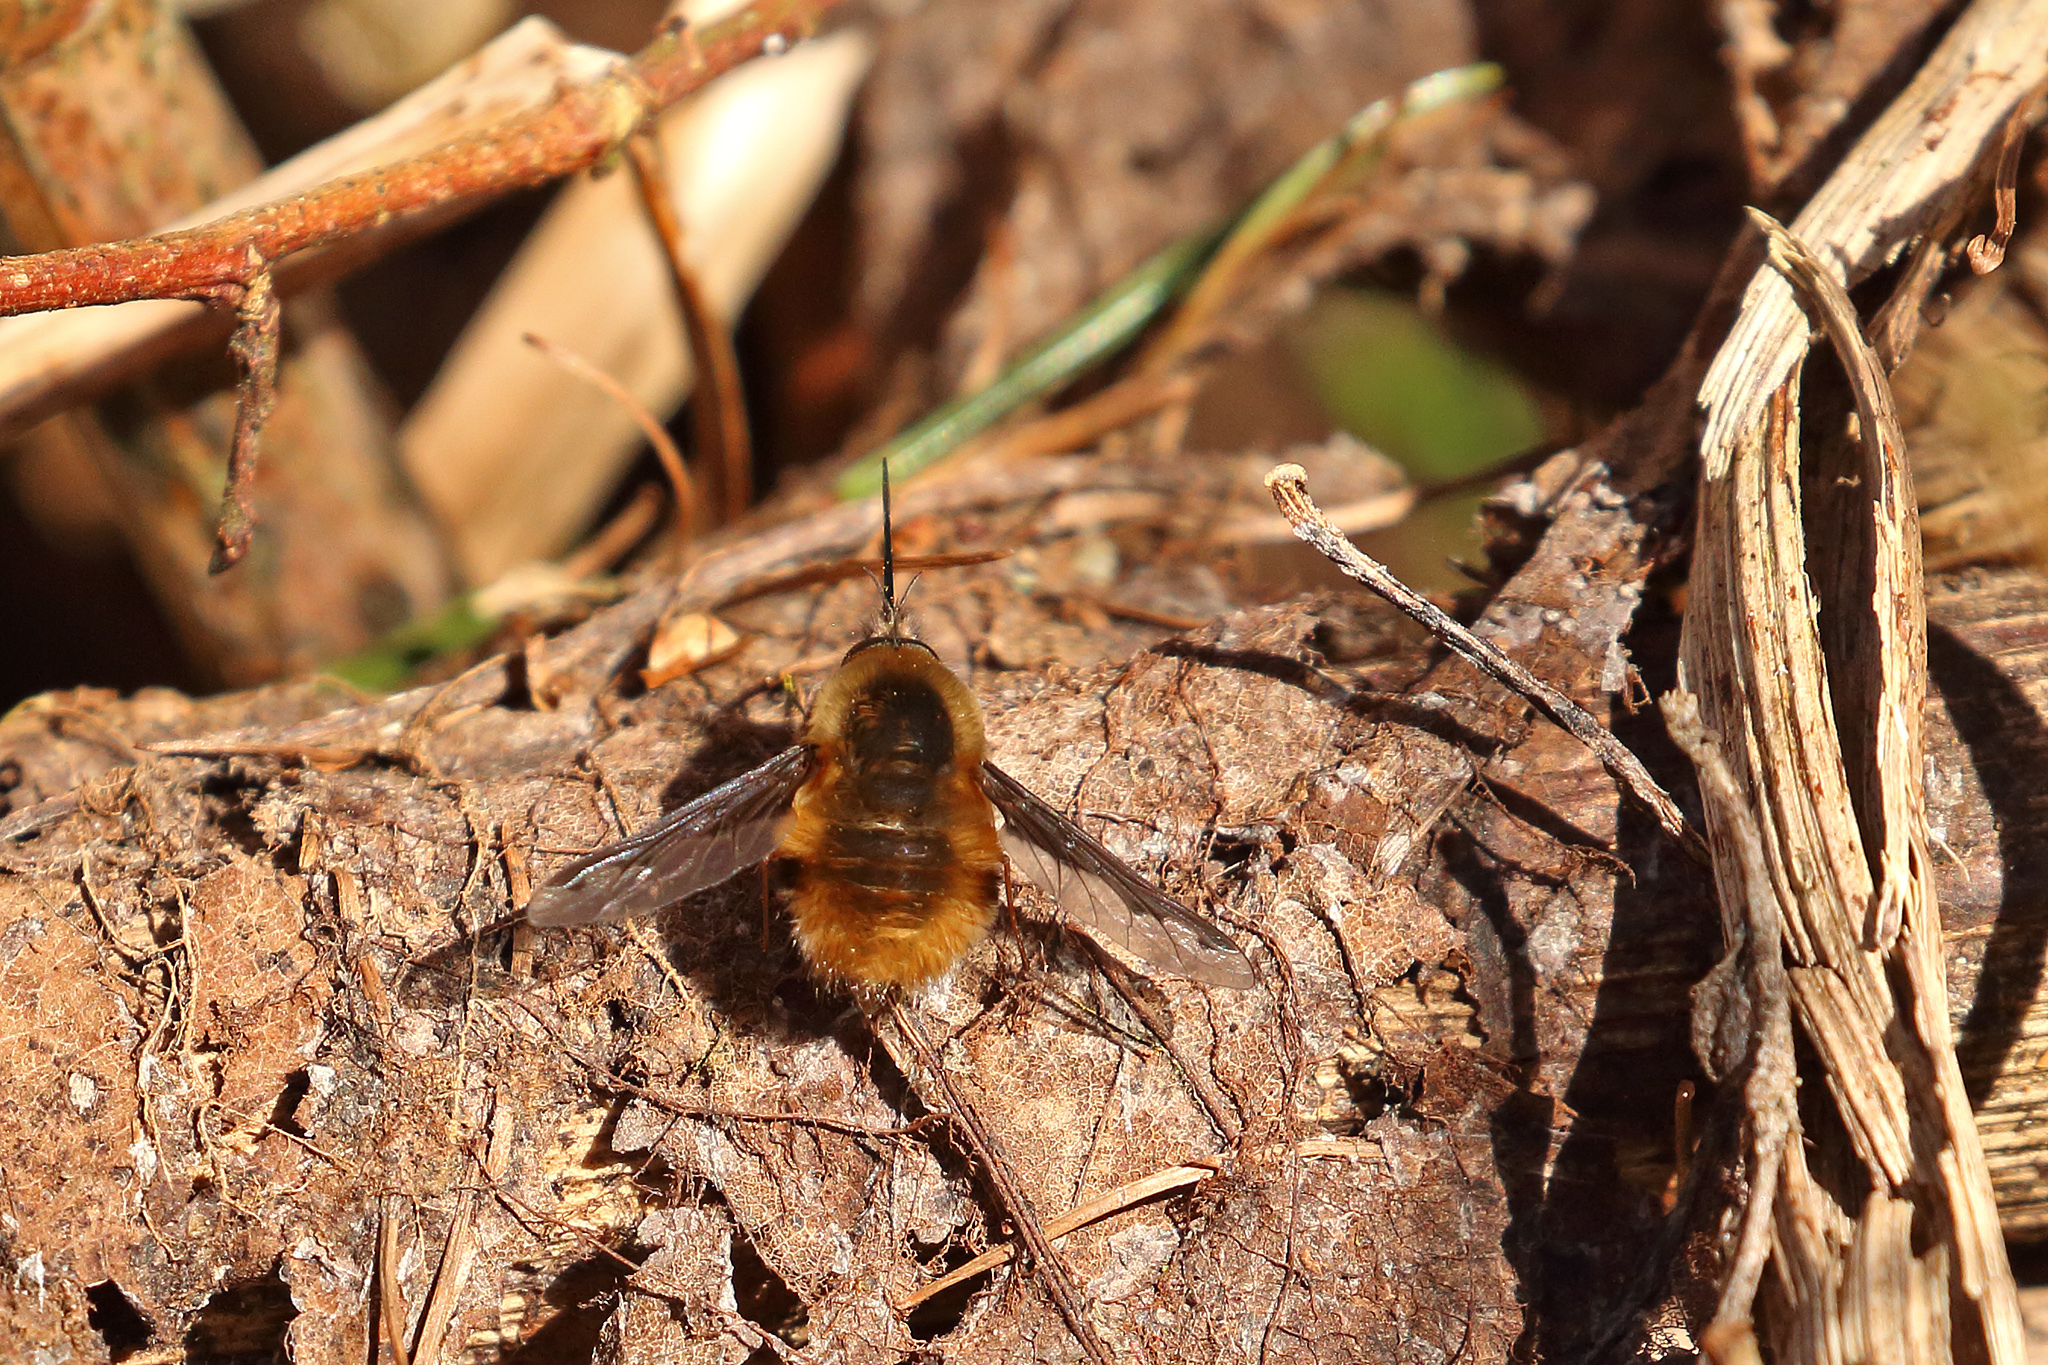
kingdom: Animalia
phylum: Arthropoda
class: Insecta
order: Diptera
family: Bombyliidae
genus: Bombylius
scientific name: Bombylius major
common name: Bee fly
